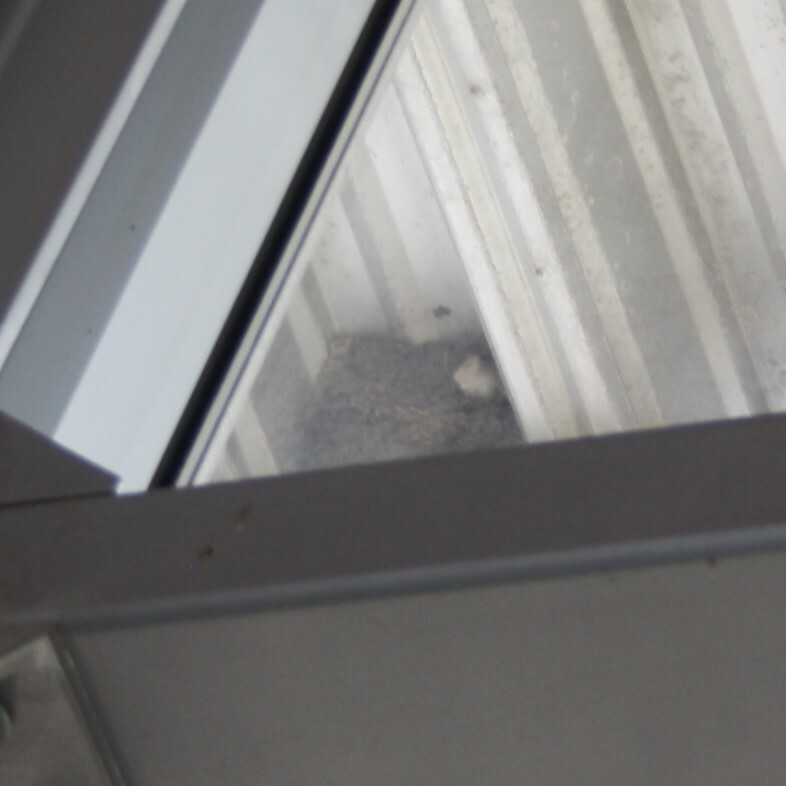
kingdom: Animalia
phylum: Chordata
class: Aves
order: Passeriformes
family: Hirundinidae
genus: Delichon
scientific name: Delichon urbicum
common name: Common house martin
